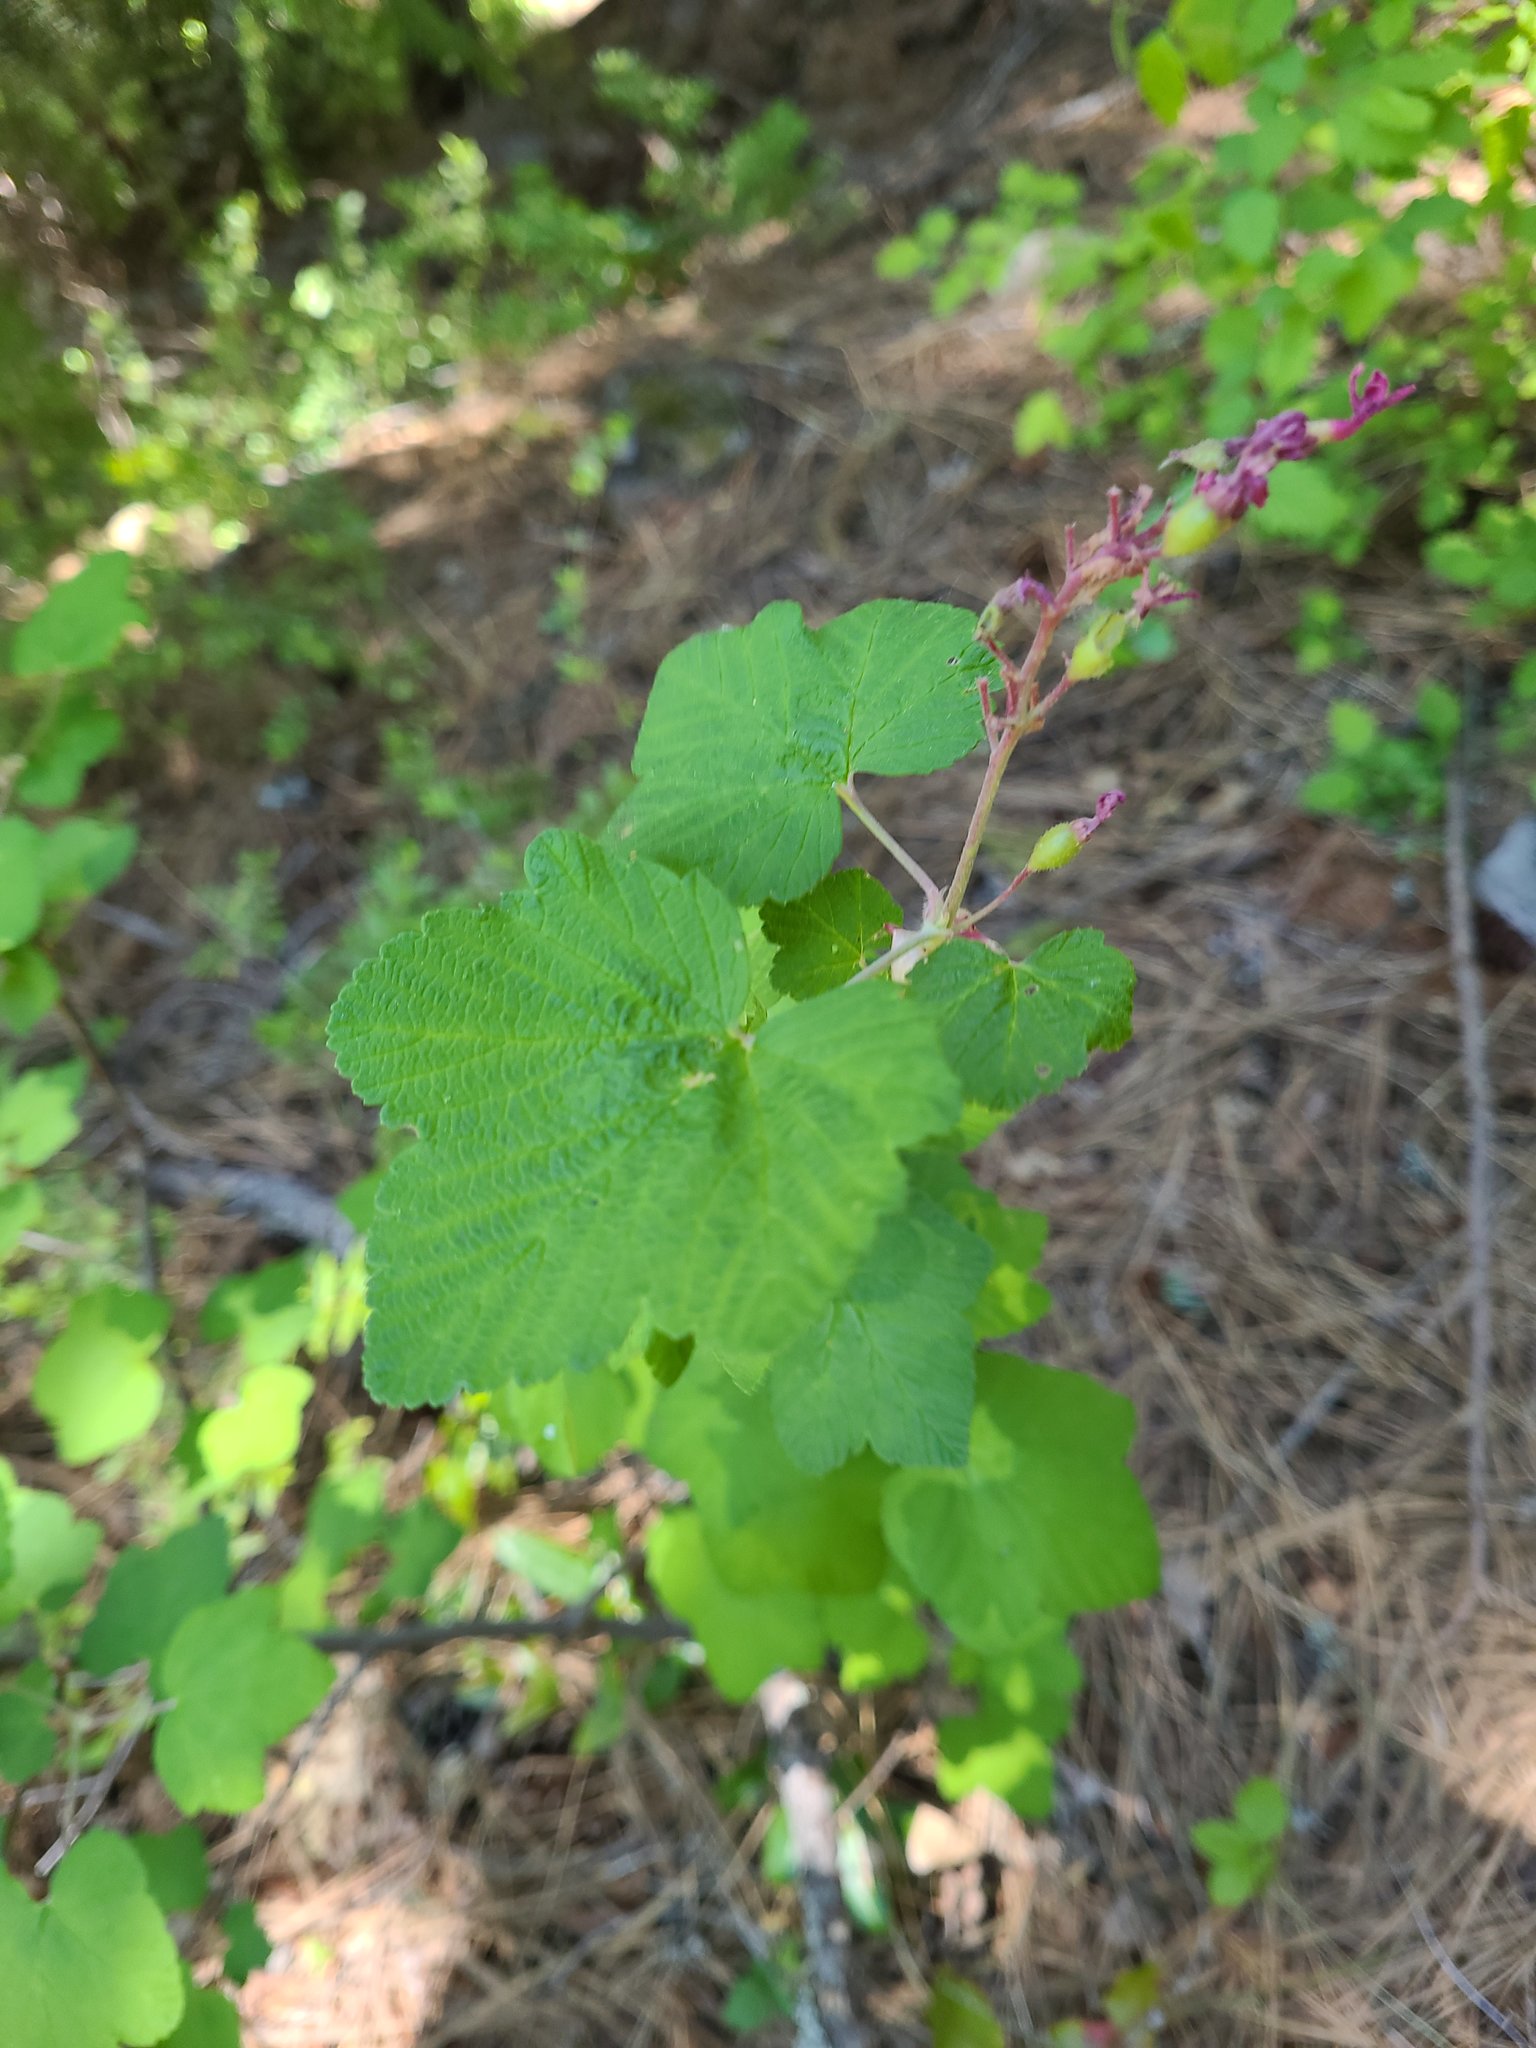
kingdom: Plantae
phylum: Tracheophyta
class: Magnoliopsida
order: Saxifragales
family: Grossulariaceae
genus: Ribes
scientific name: Ribes sanguineum
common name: Flowering currant
